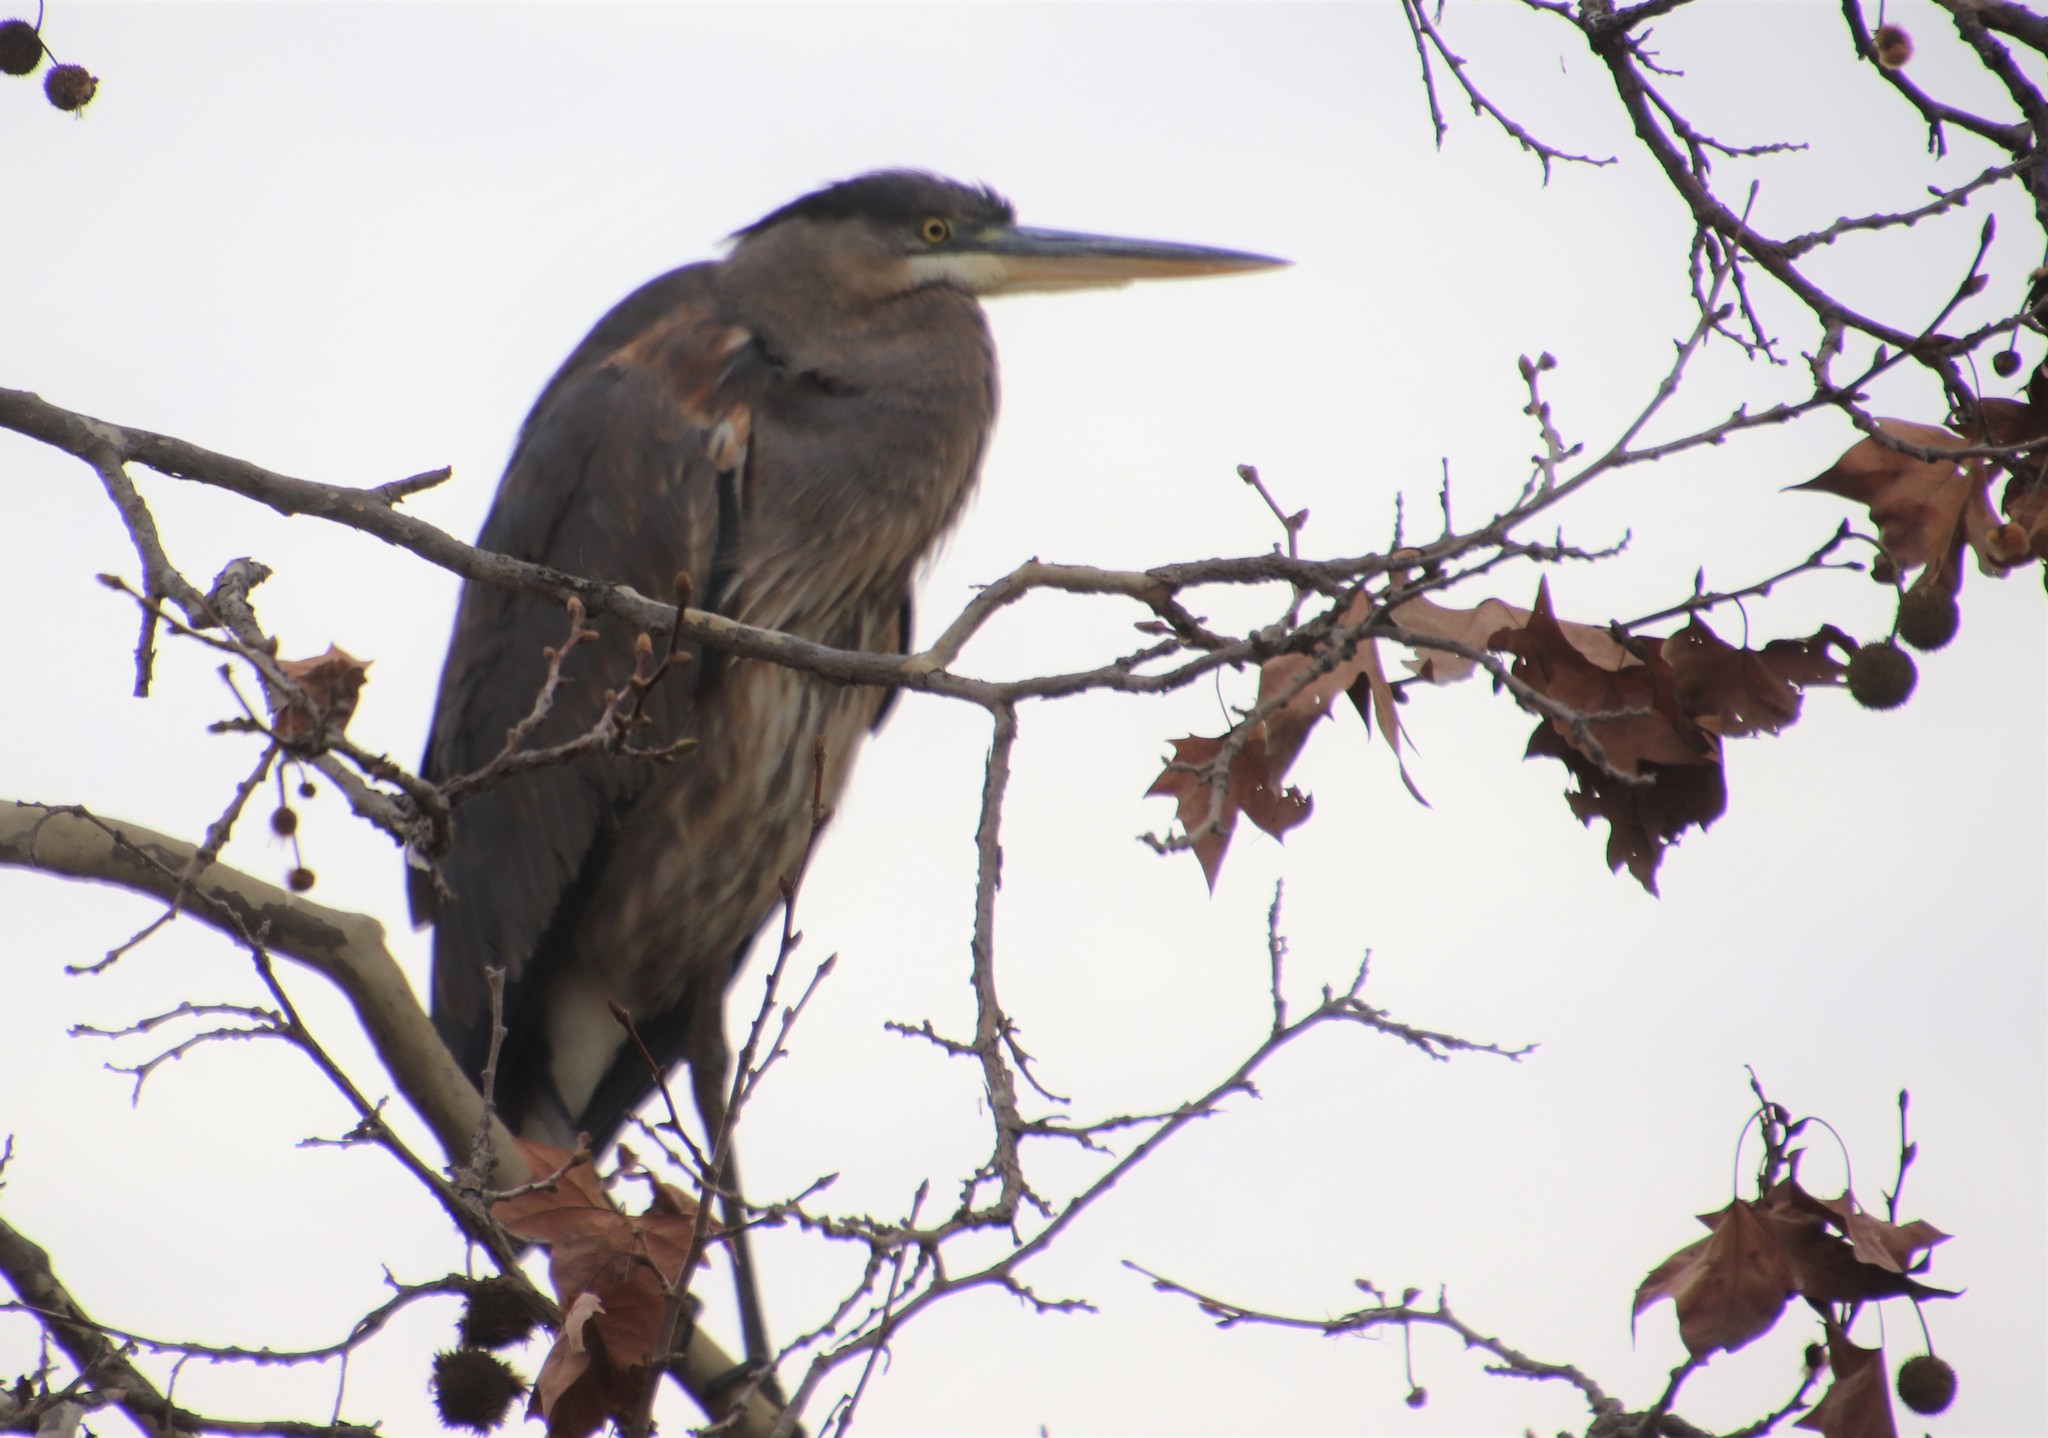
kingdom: Animalia
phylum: Chordata
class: Aves
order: Pelecaniformes
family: Ardeidae
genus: Ardea
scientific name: Ardea herodias
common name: Great blue heron
